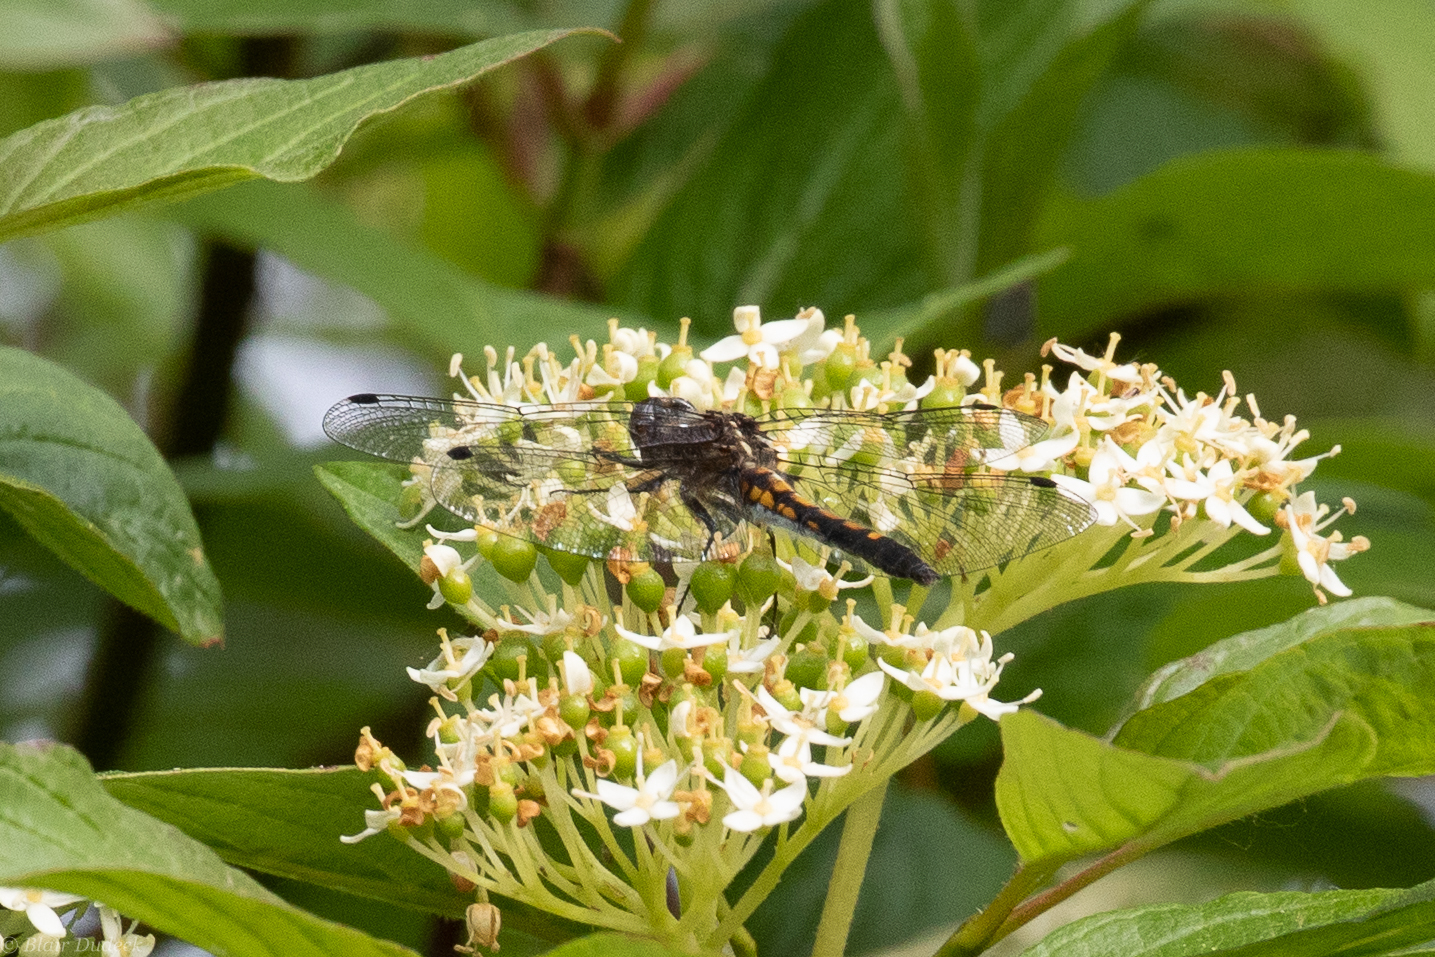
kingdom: Animalia
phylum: Arthropoda
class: Insecta
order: Odonata
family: Libellulidae
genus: Leucorrhinia
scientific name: Leucorrhinia intacta
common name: Dot-tailed whiteface
